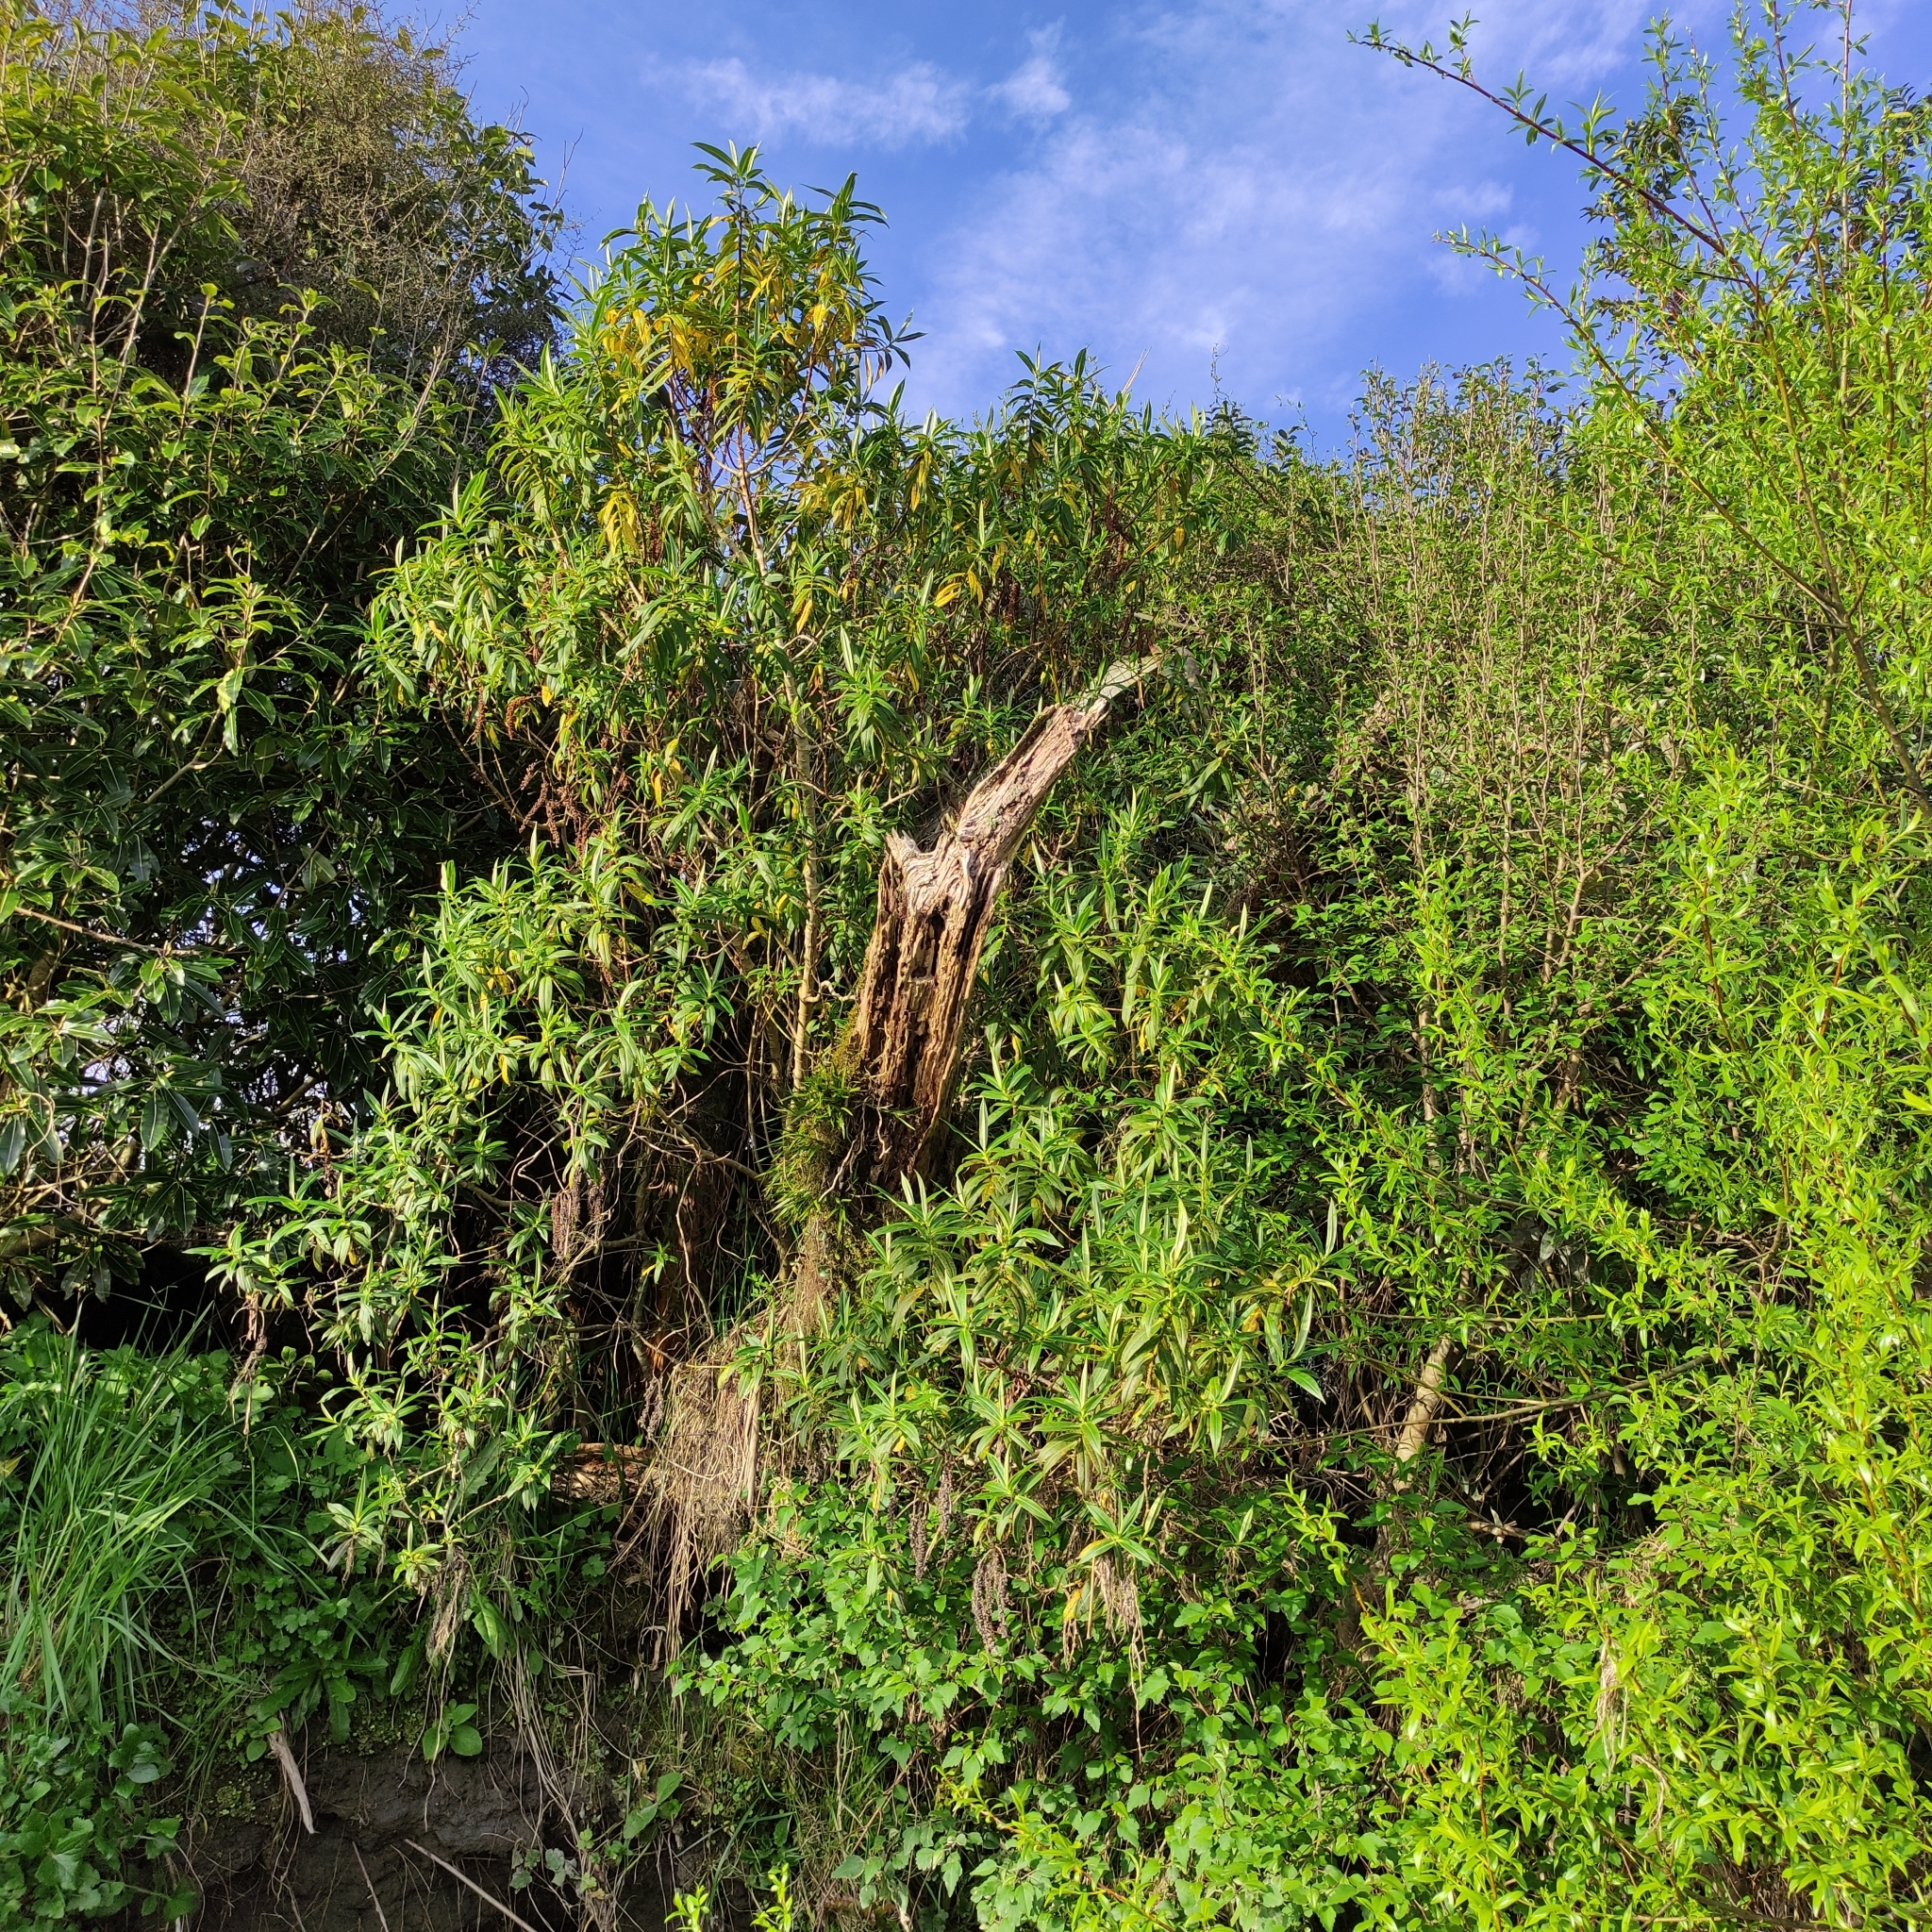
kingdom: Plantae
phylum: Tracheophyta
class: Magnoliopsida
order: Lamiales
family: Plantaginaceae
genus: Veronica
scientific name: Veronica salicifolia
